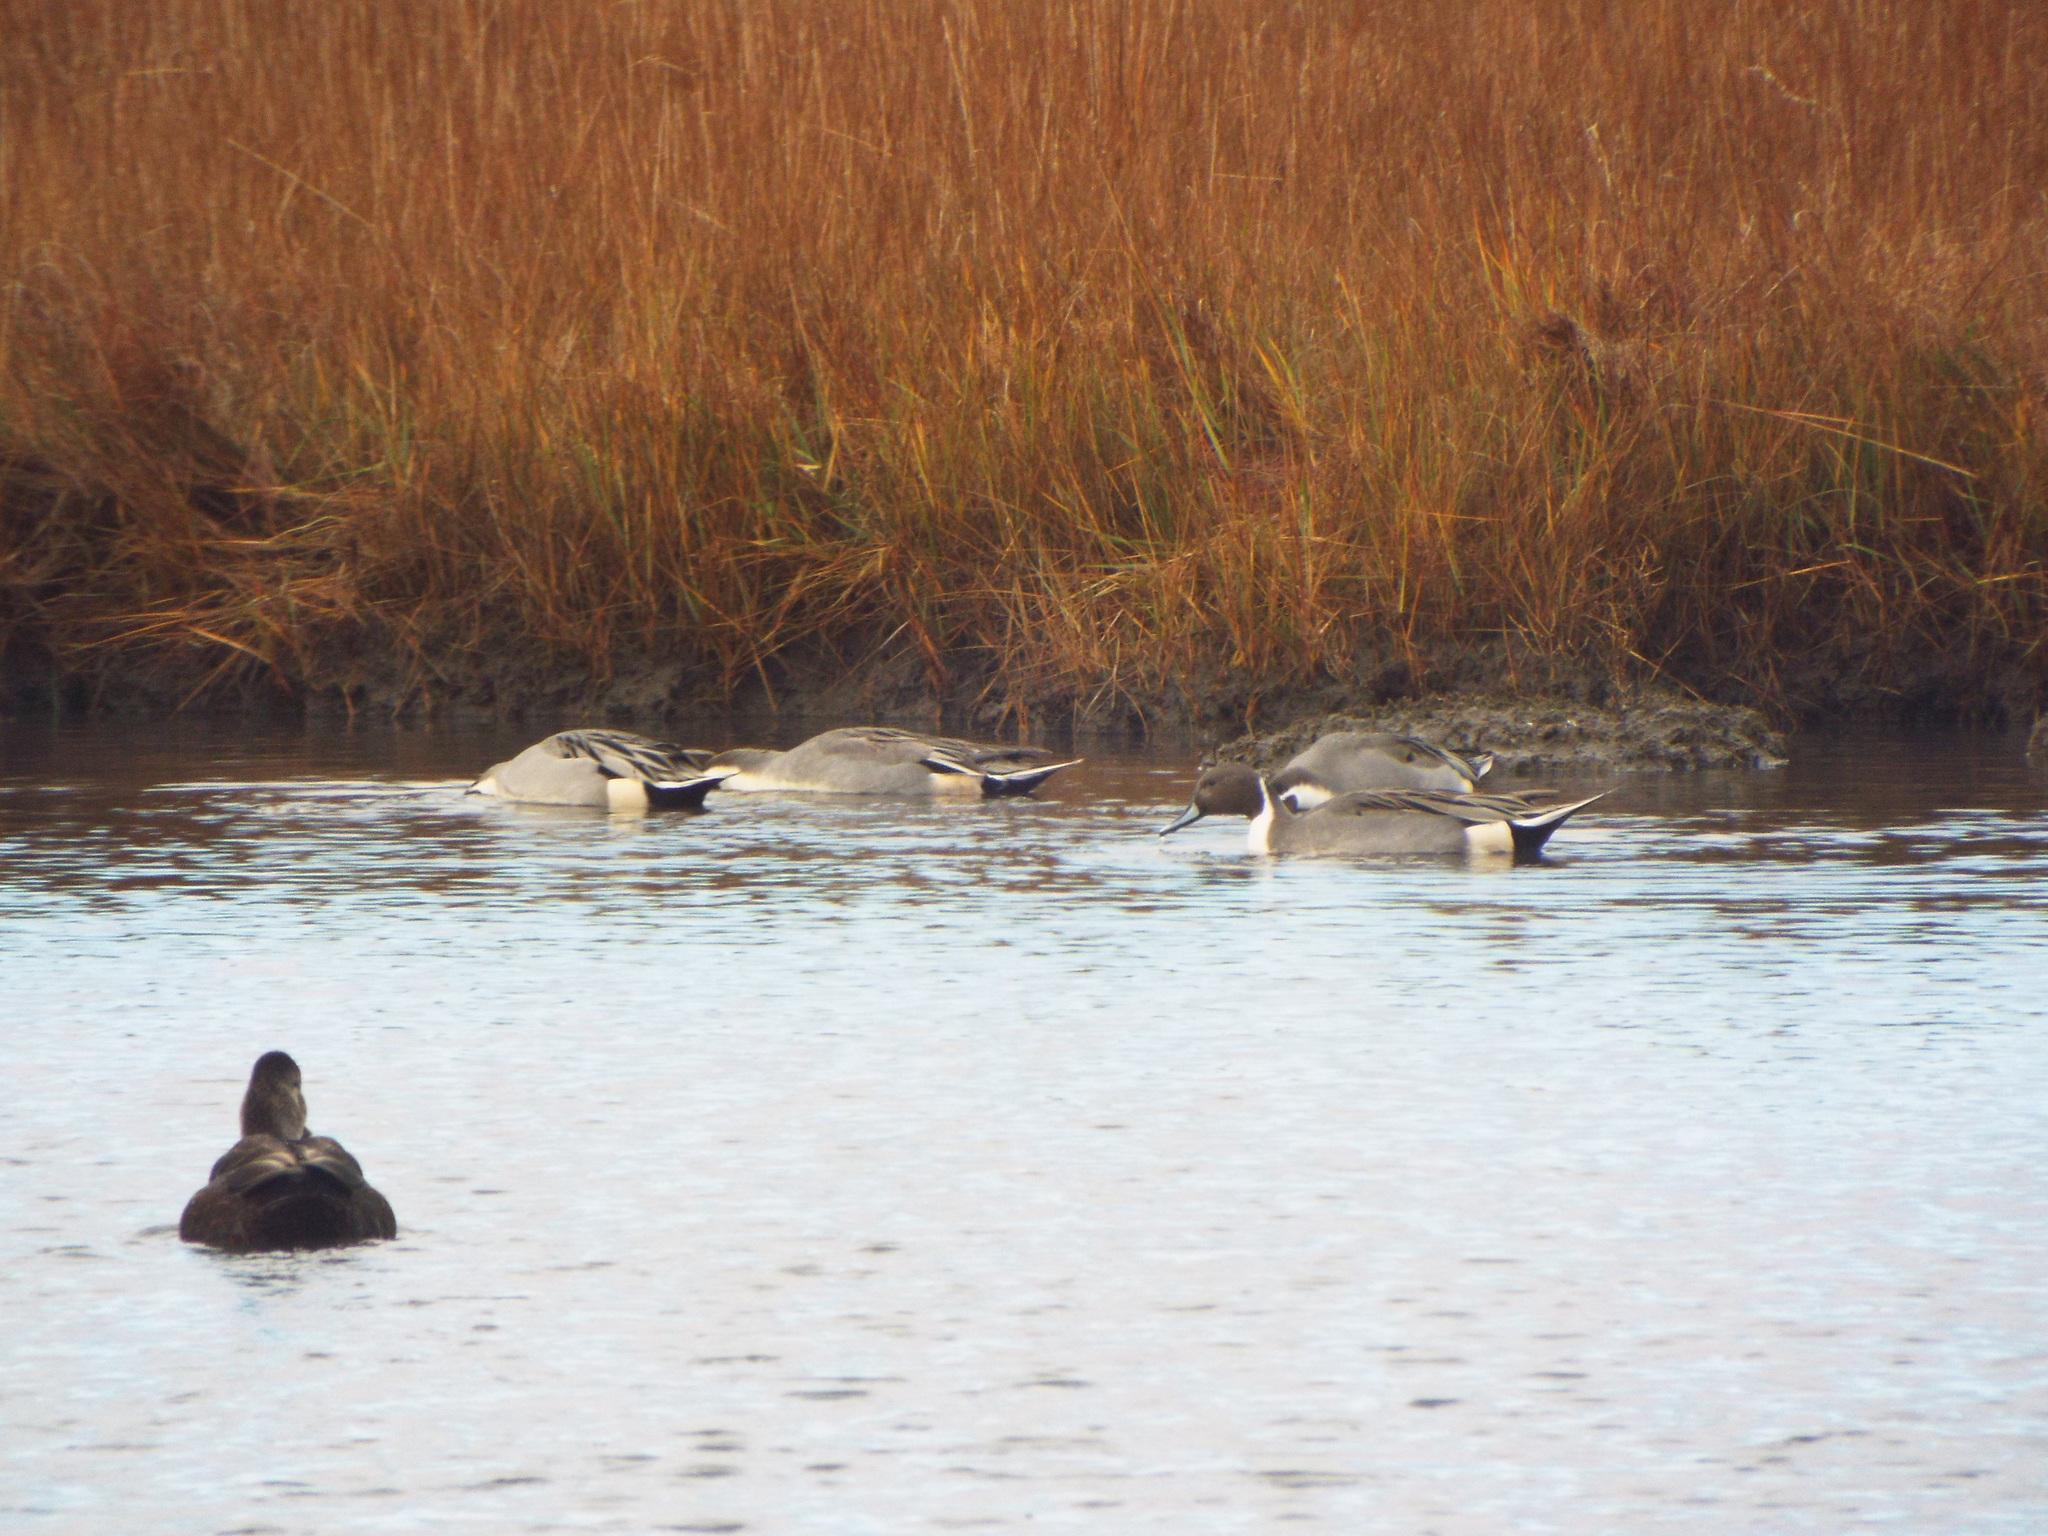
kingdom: Animalia
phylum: Chordata
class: Aves
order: Anseriformes
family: Anatidae
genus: Anas
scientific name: Anas acuta
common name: Northern pintail
